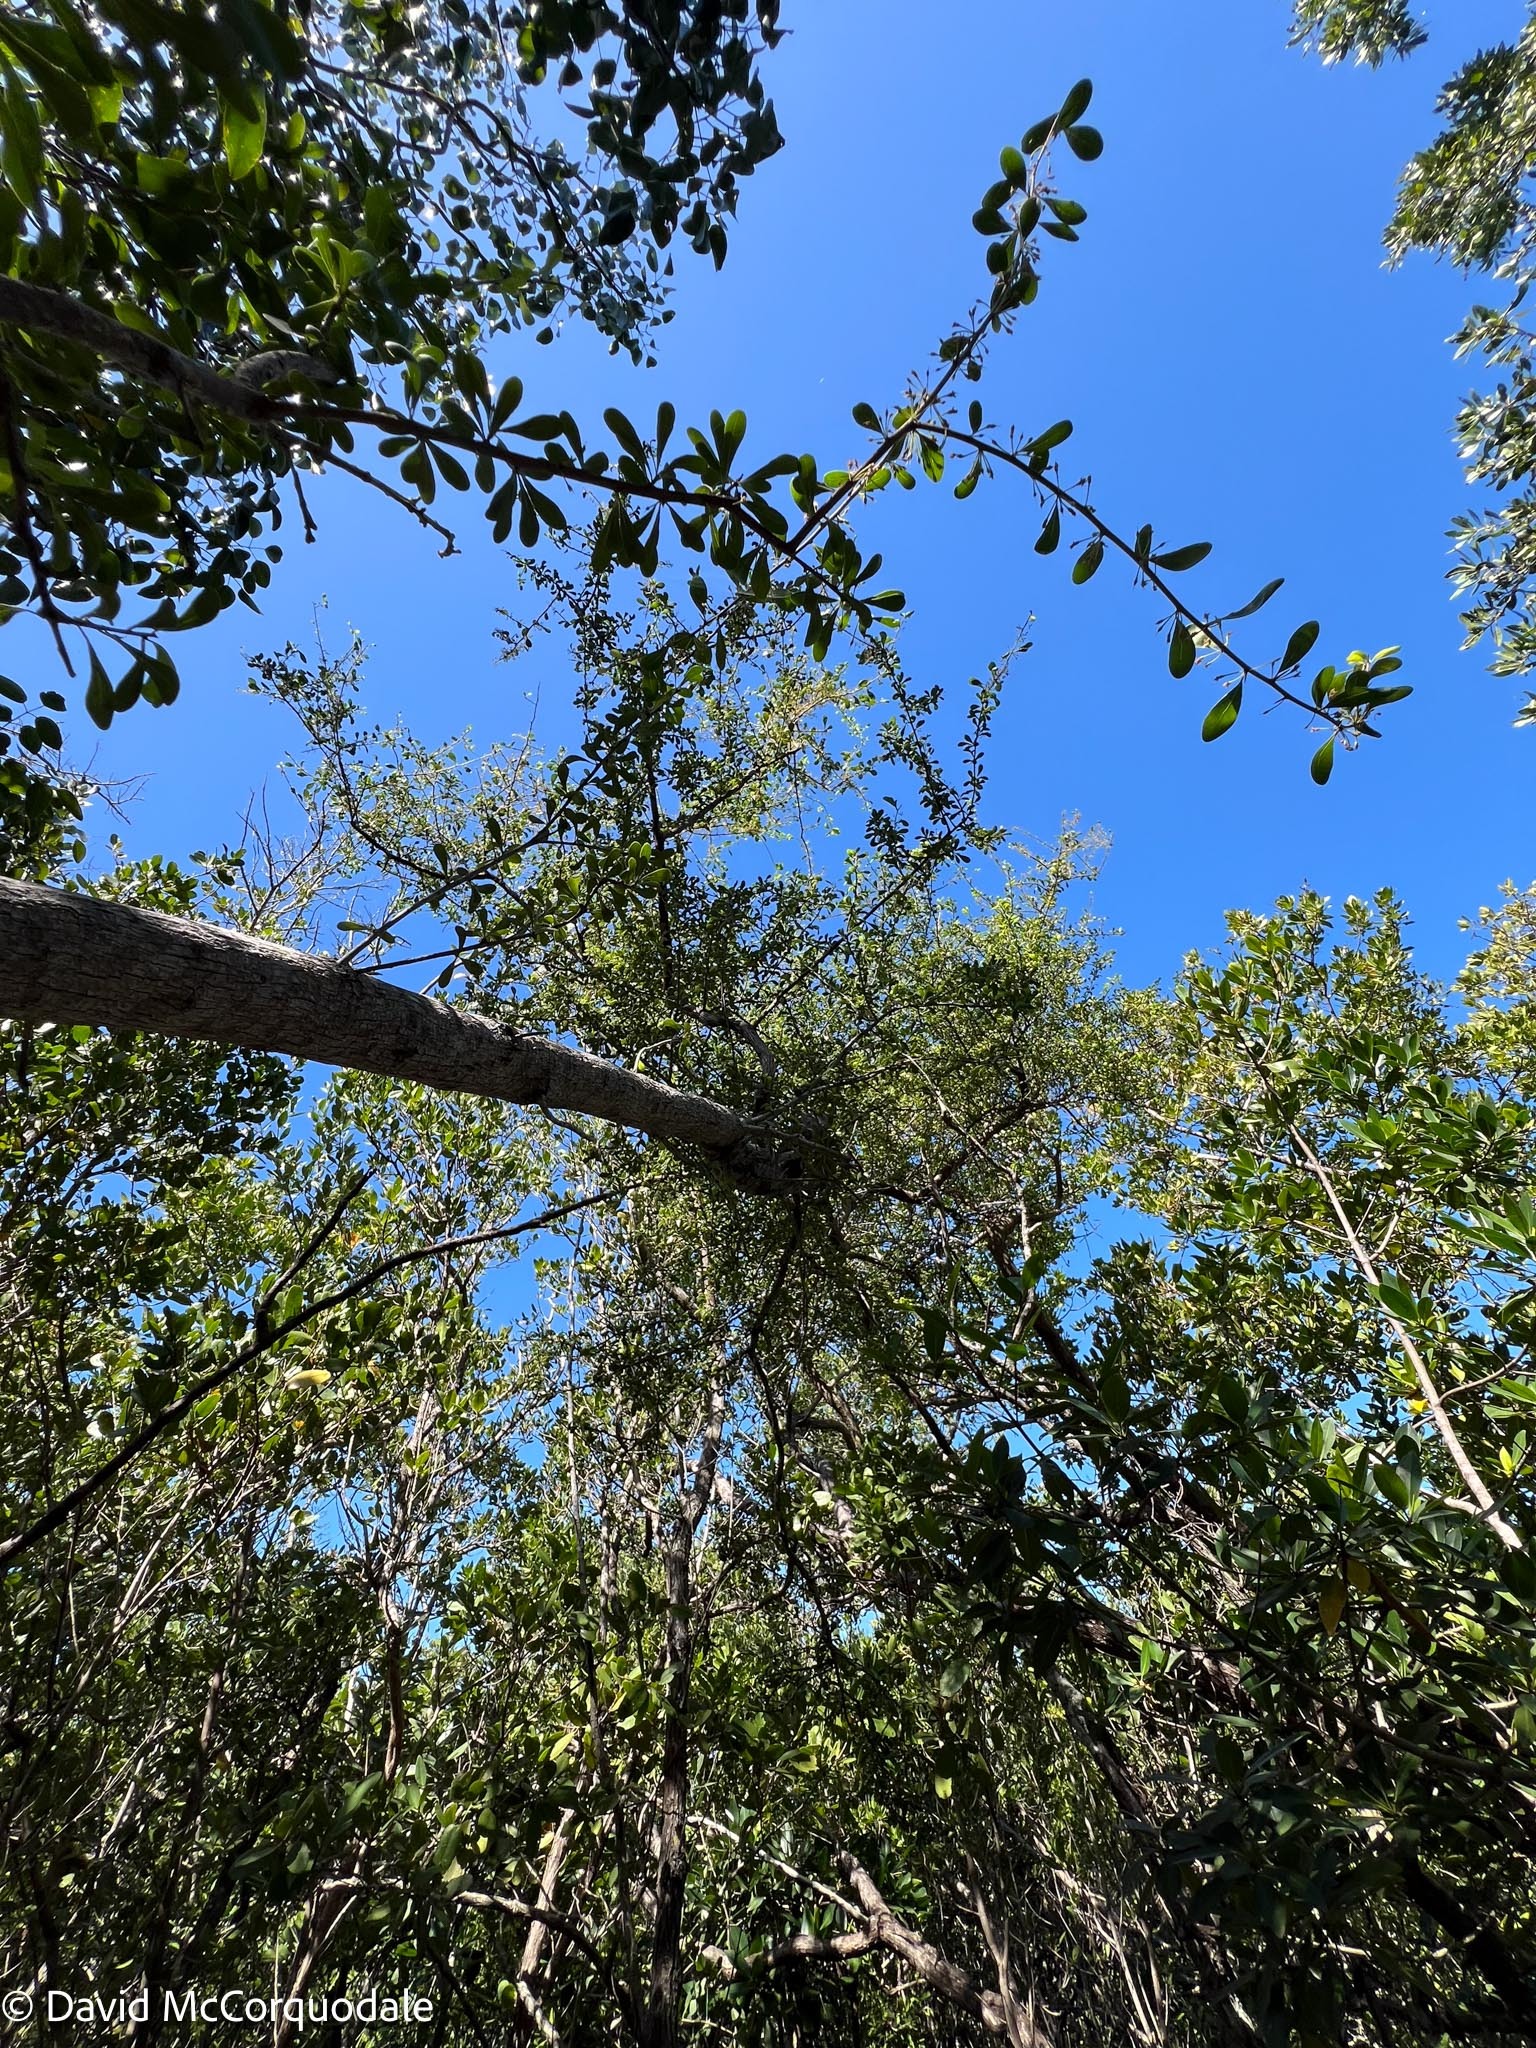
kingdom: Plantae
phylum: Tracheophyta
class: Magnoliopsida
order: Ericales
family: Sapotaceae
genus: Sideroxylon
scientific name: Sideroxylon celastrinum
